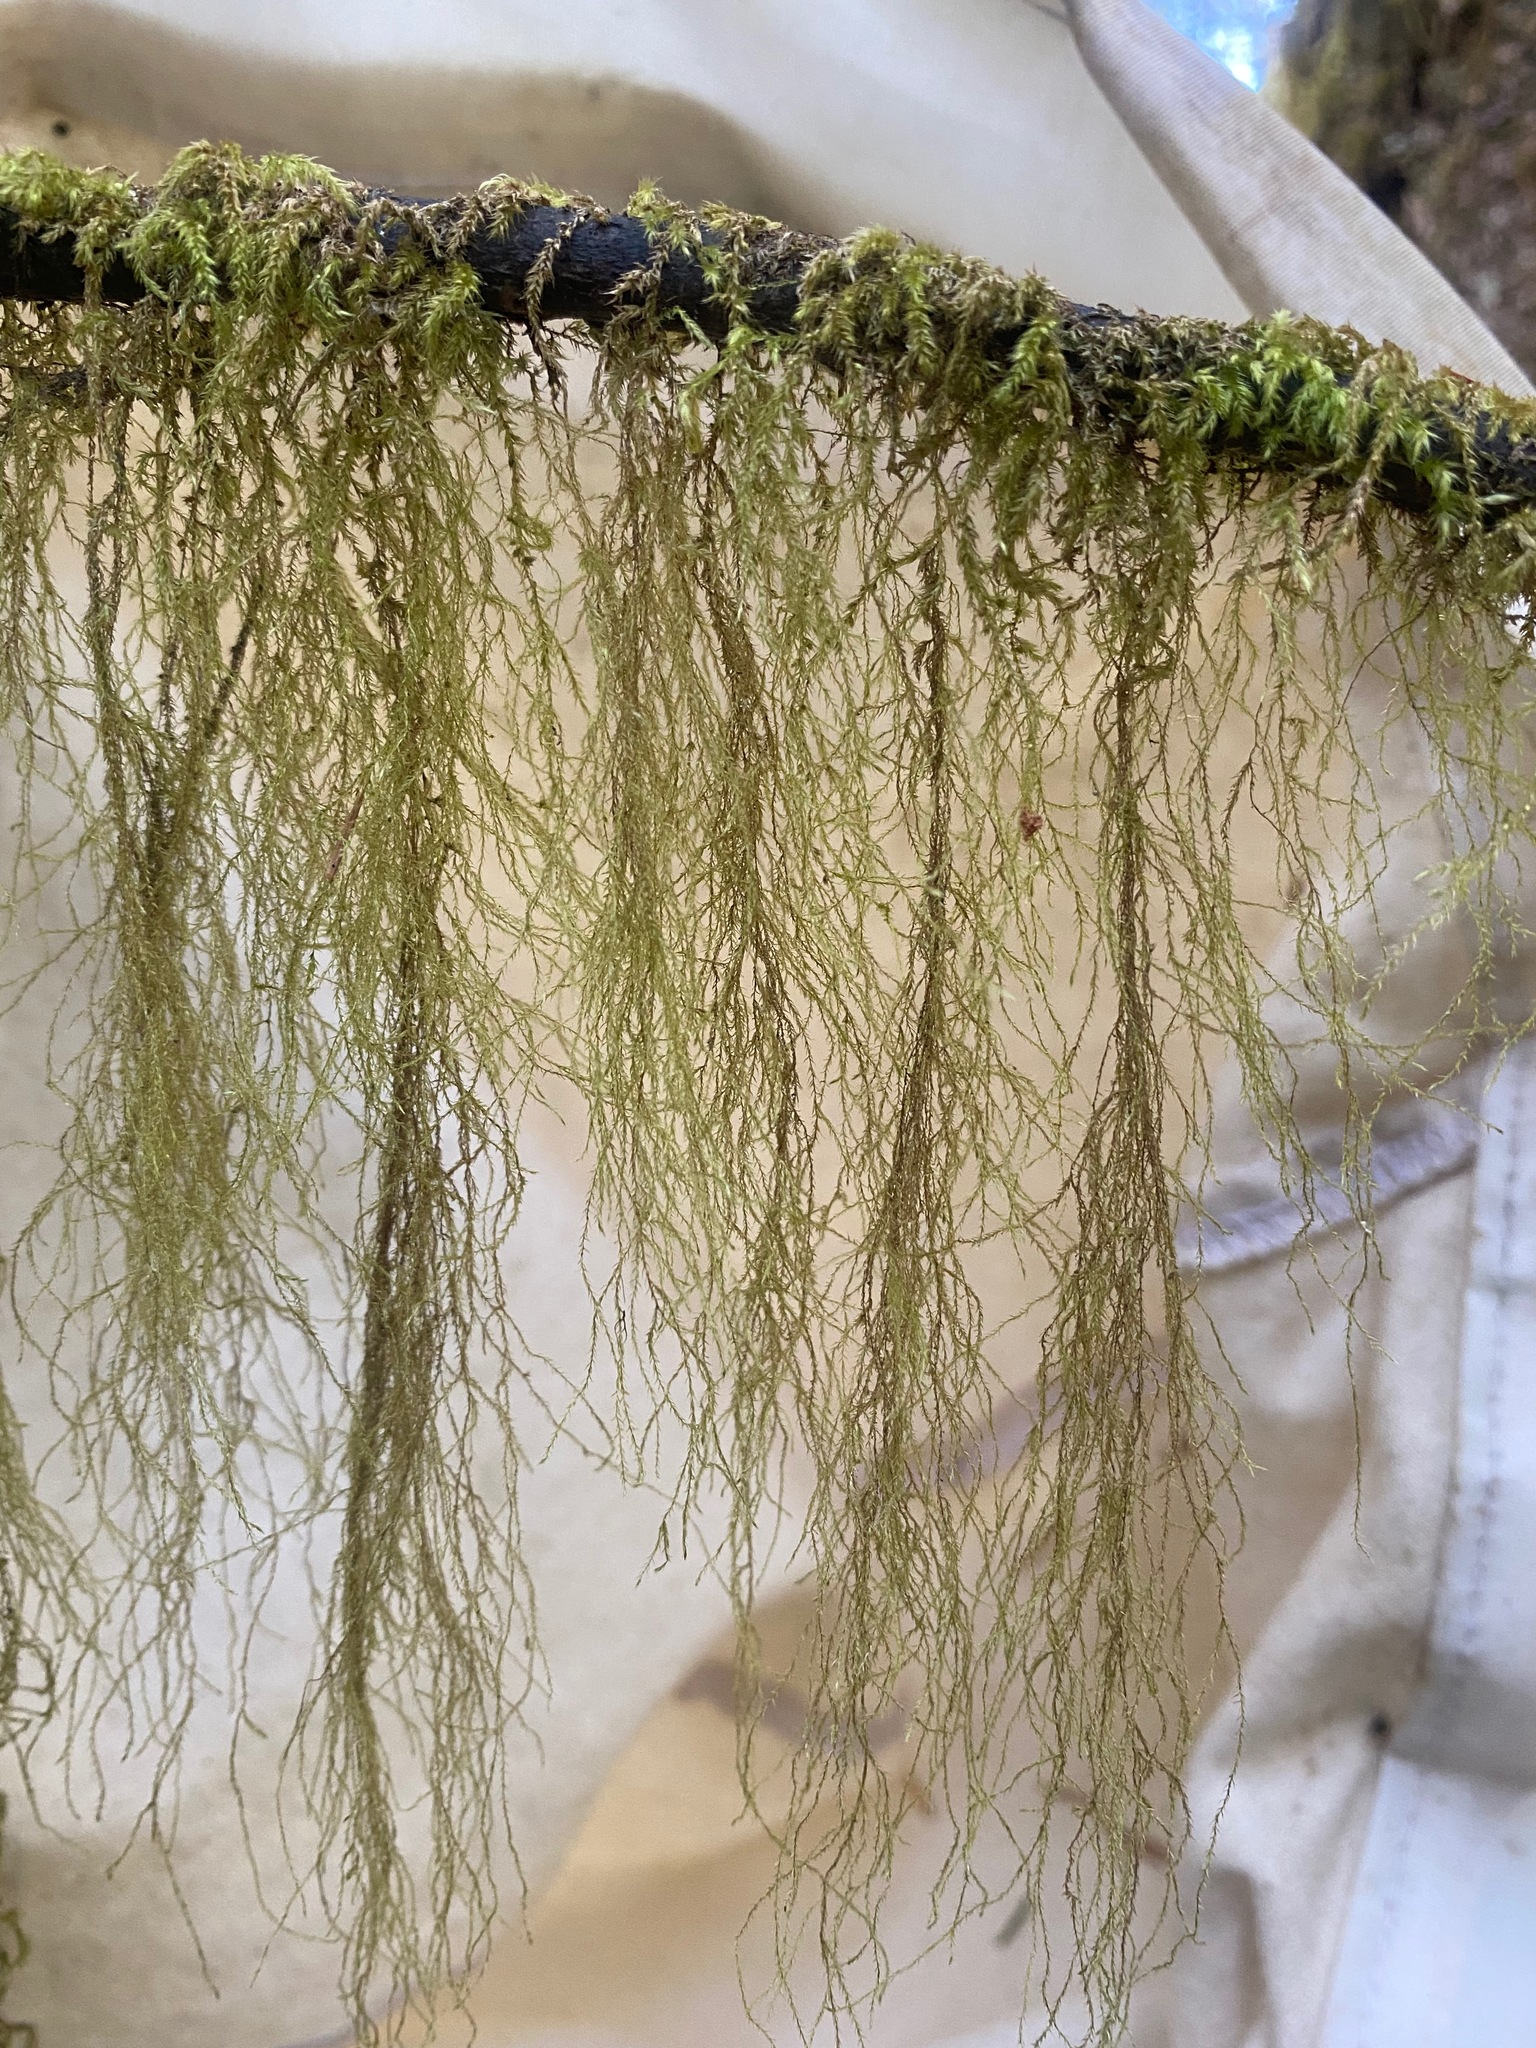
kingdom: Plantae
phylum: Bryophyta
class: Bryopsida
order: Hypnales
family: Lembophyllaceae
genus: Pseudisothecium
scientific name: Pseudisothecium stoloniferum
